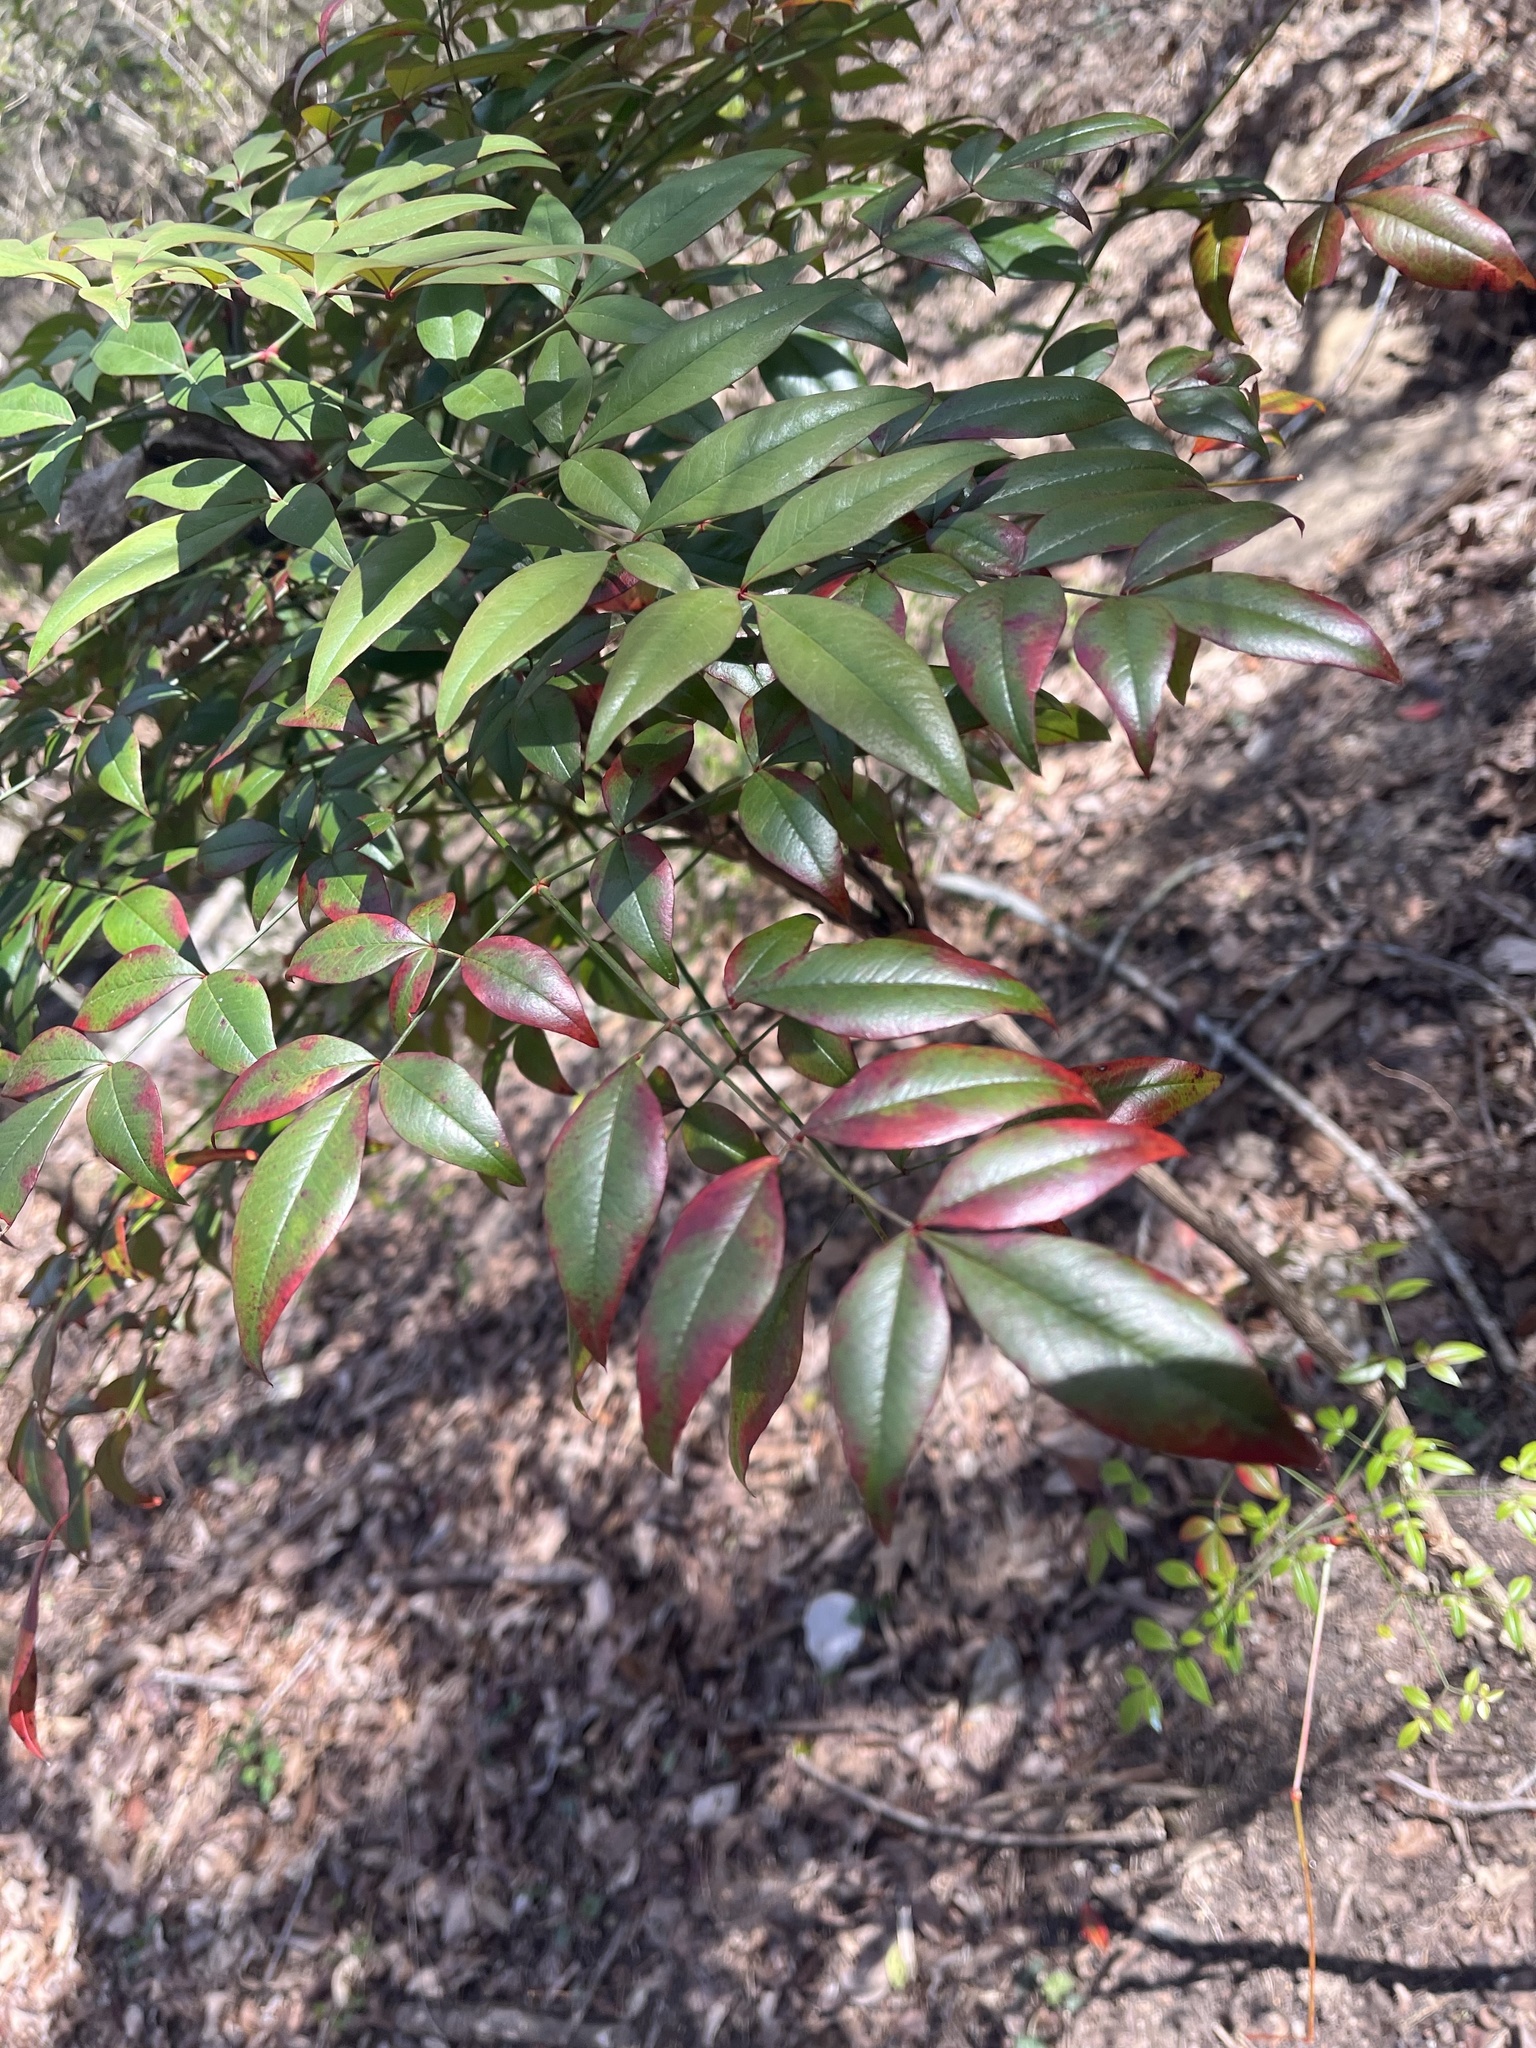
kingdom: Plantae
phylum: Tracheophyta
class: Magnoliopsida
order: Ranunculales
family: Berberidaceae
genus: Nandina
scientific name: Nandina domestica
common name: Sacred bamboo
